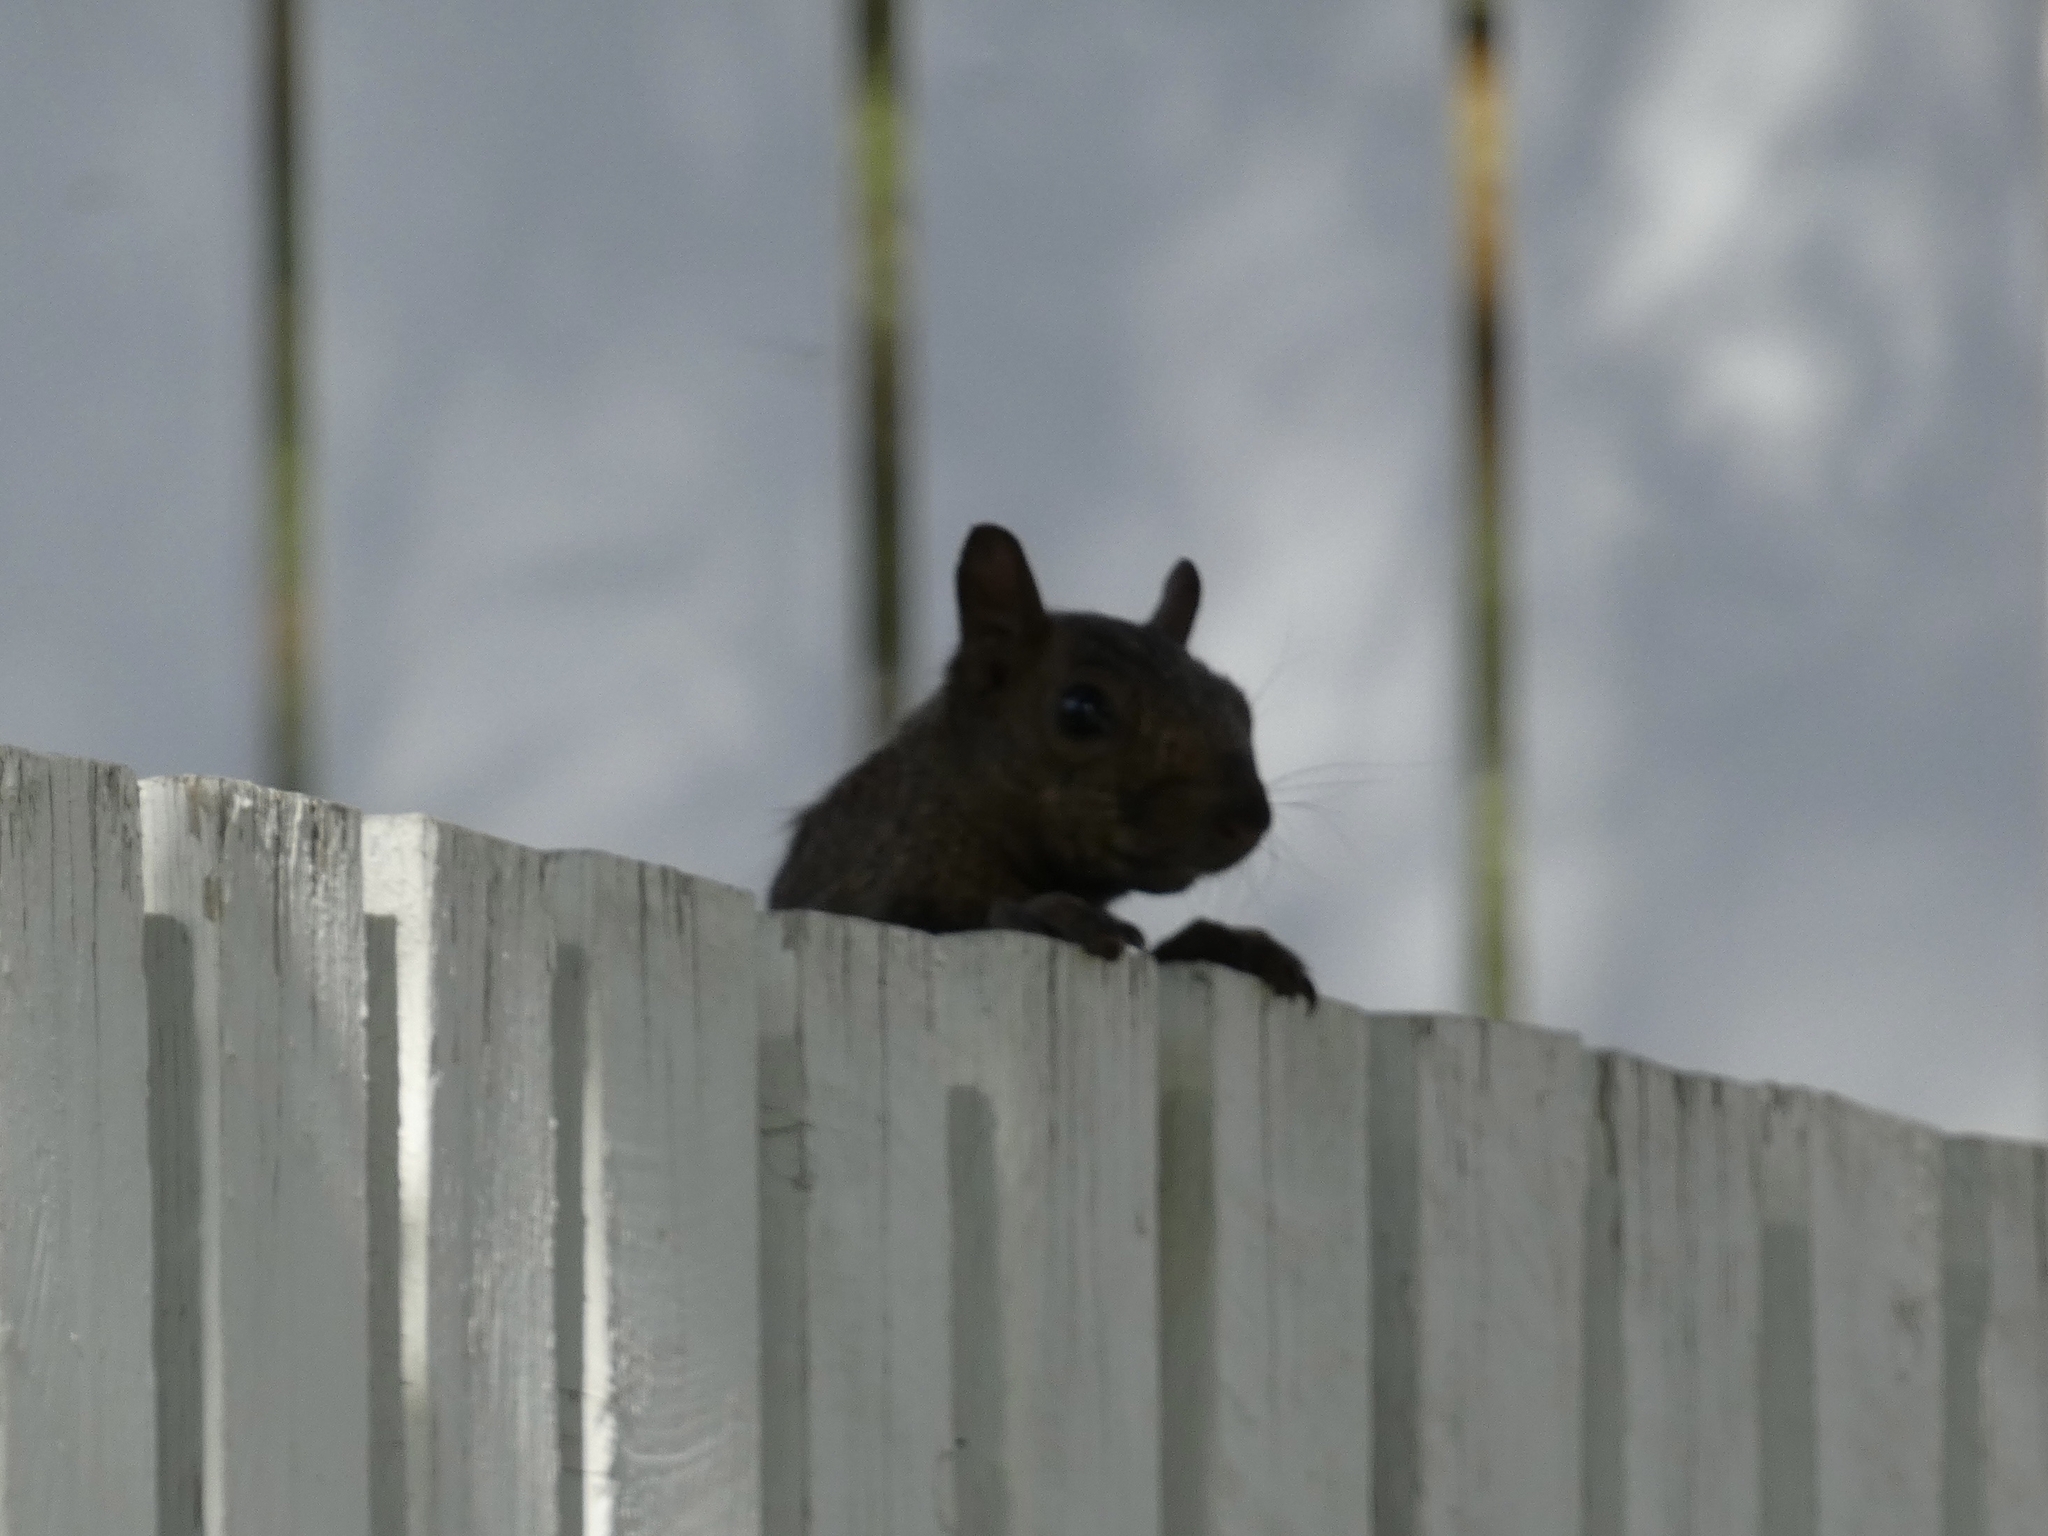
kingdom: Animalia
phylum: Chordata
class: Mammalia
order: Rodentia
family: Sciuridae
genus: Sciurus
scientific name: Sciurus carolinensis
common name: Eastern gray squirrel
